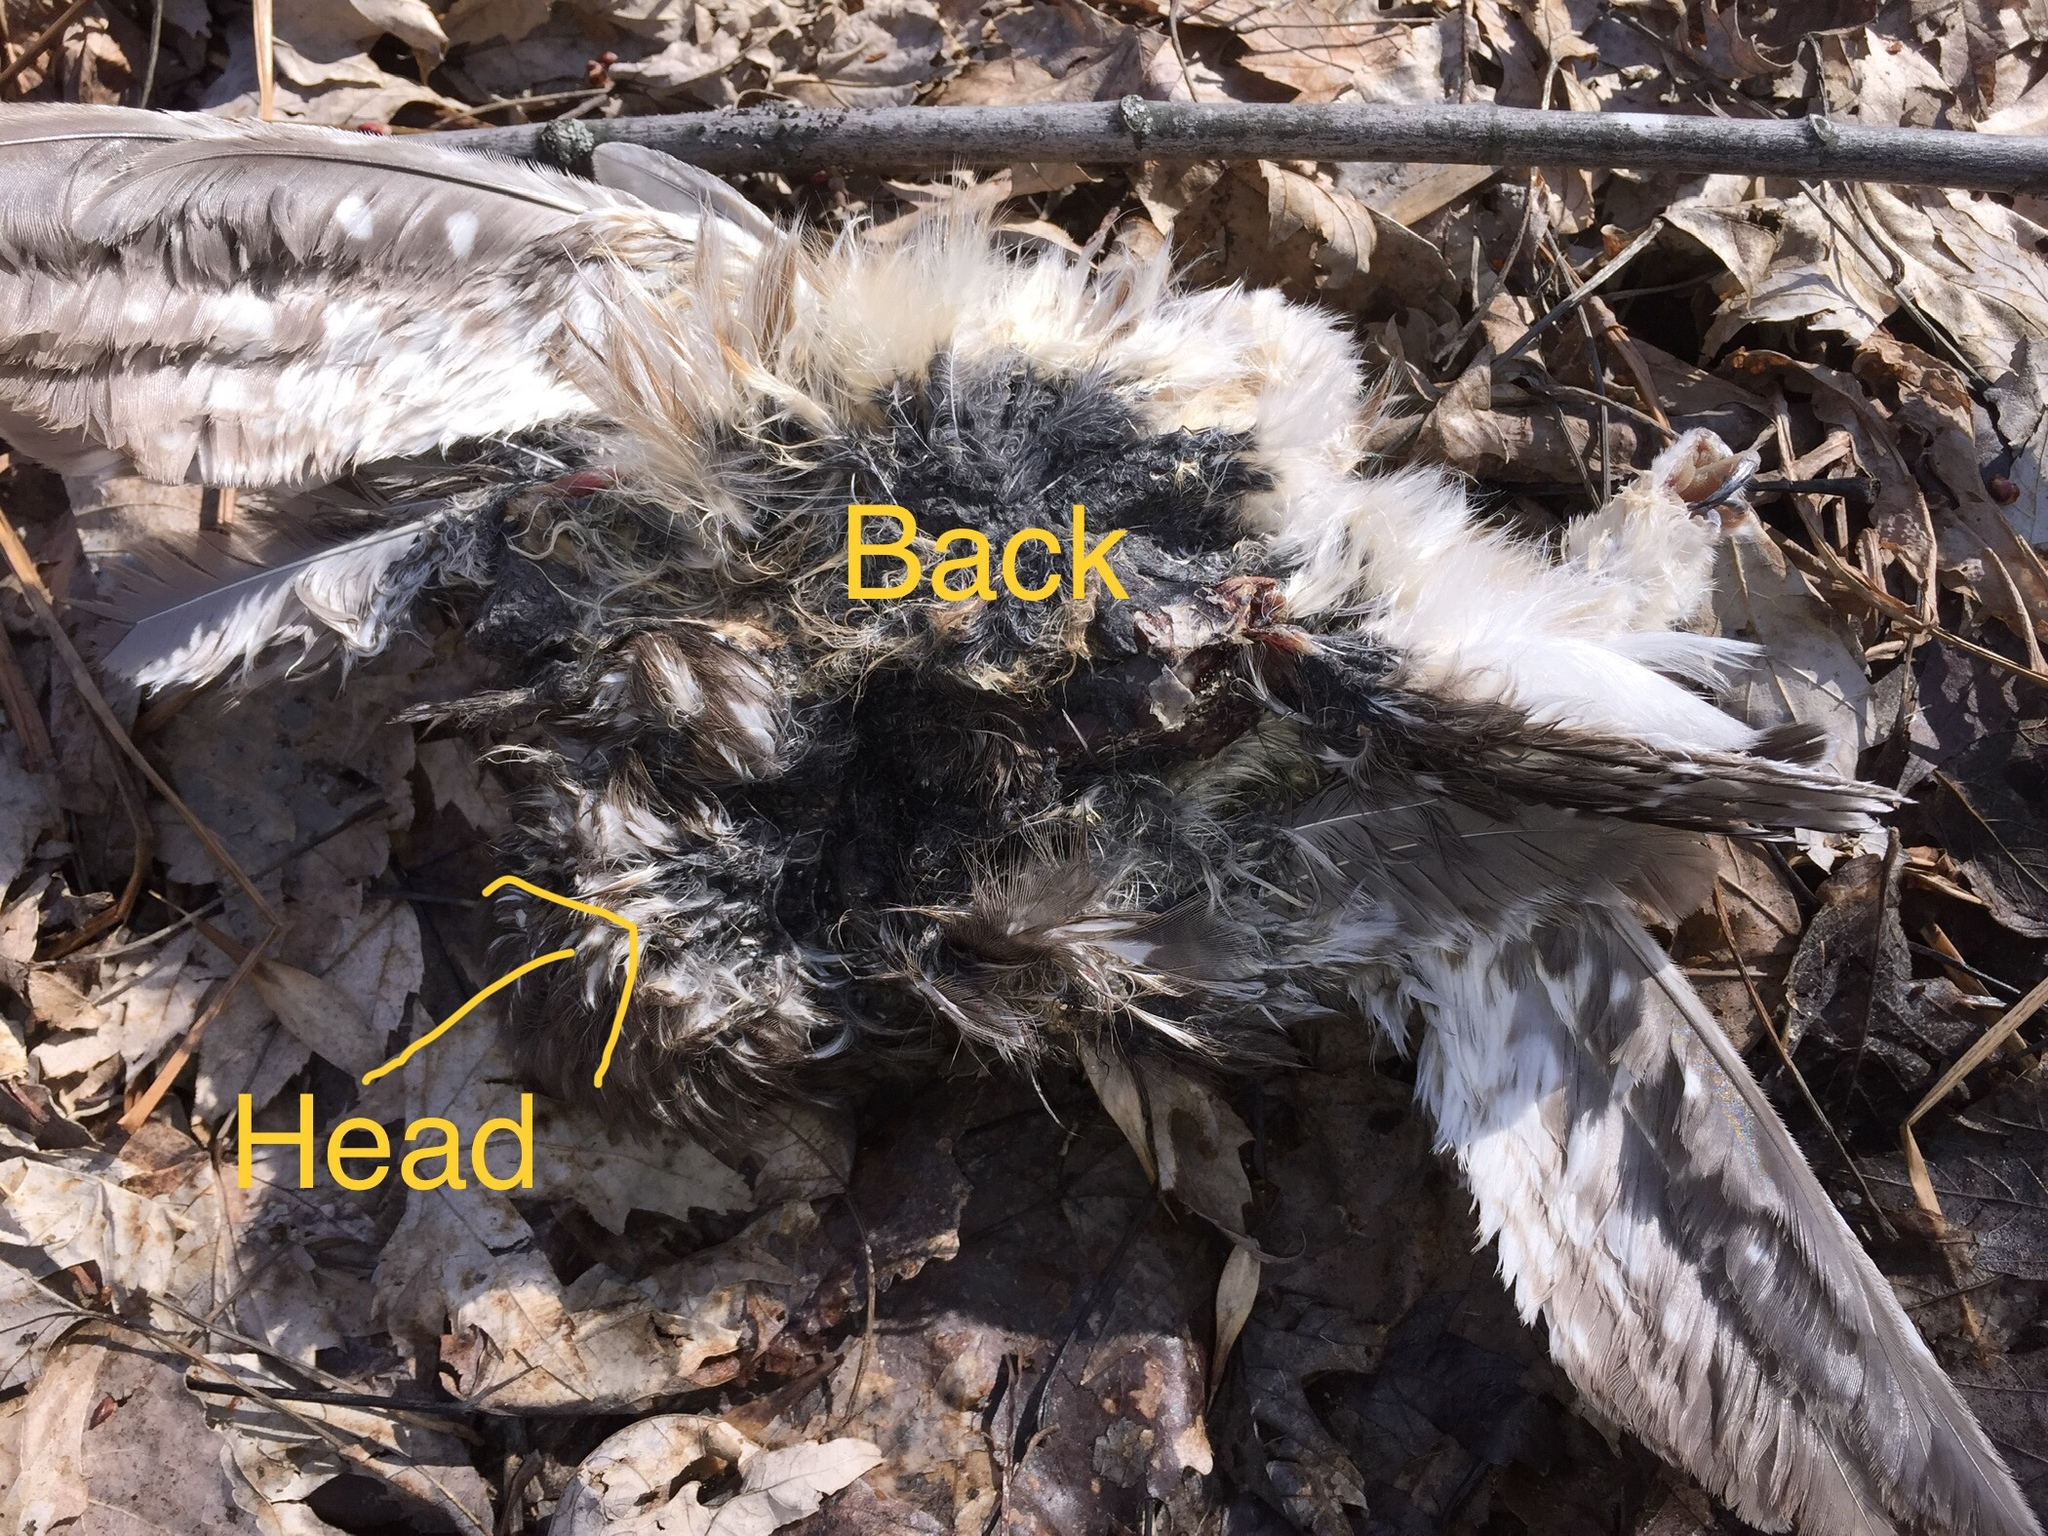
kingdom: Animalia
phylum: Chordata
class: Aves
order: Strigiformes
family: Strigidae
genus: Aegolius
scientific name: Aegolius acadicus
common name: Northern saw-whet owl
